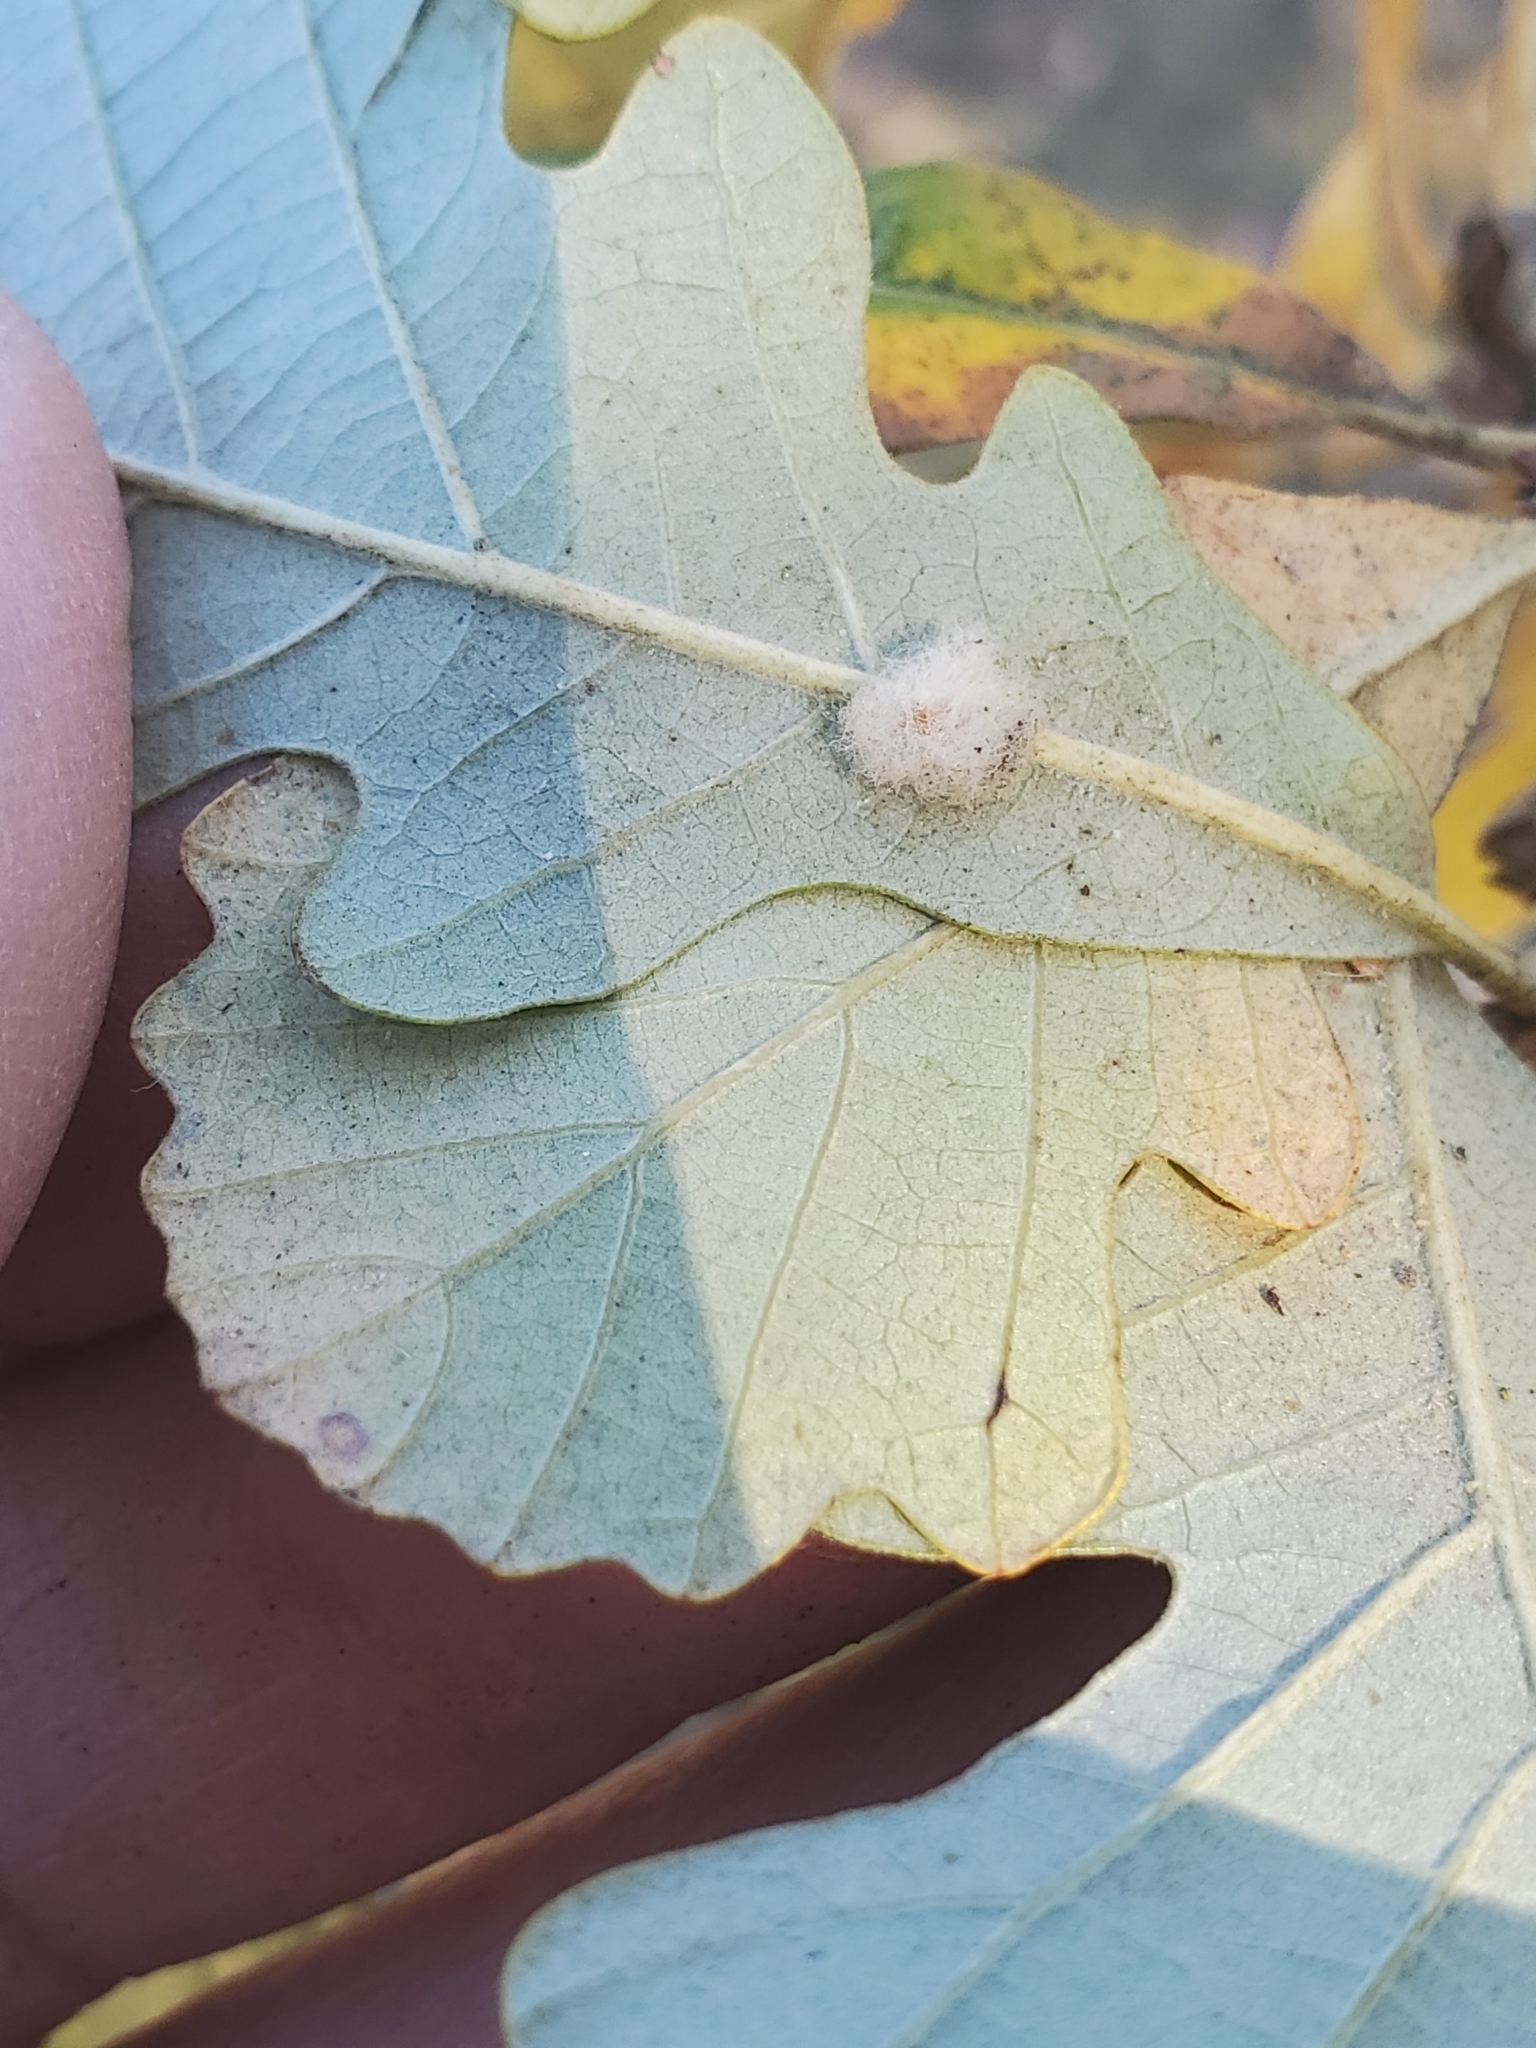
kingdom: Animalia
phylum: Arthropoda
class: Insecta
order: Hymenoptera
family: Cynipidae
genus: Andricus
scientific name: Andricus Druon ignotum
